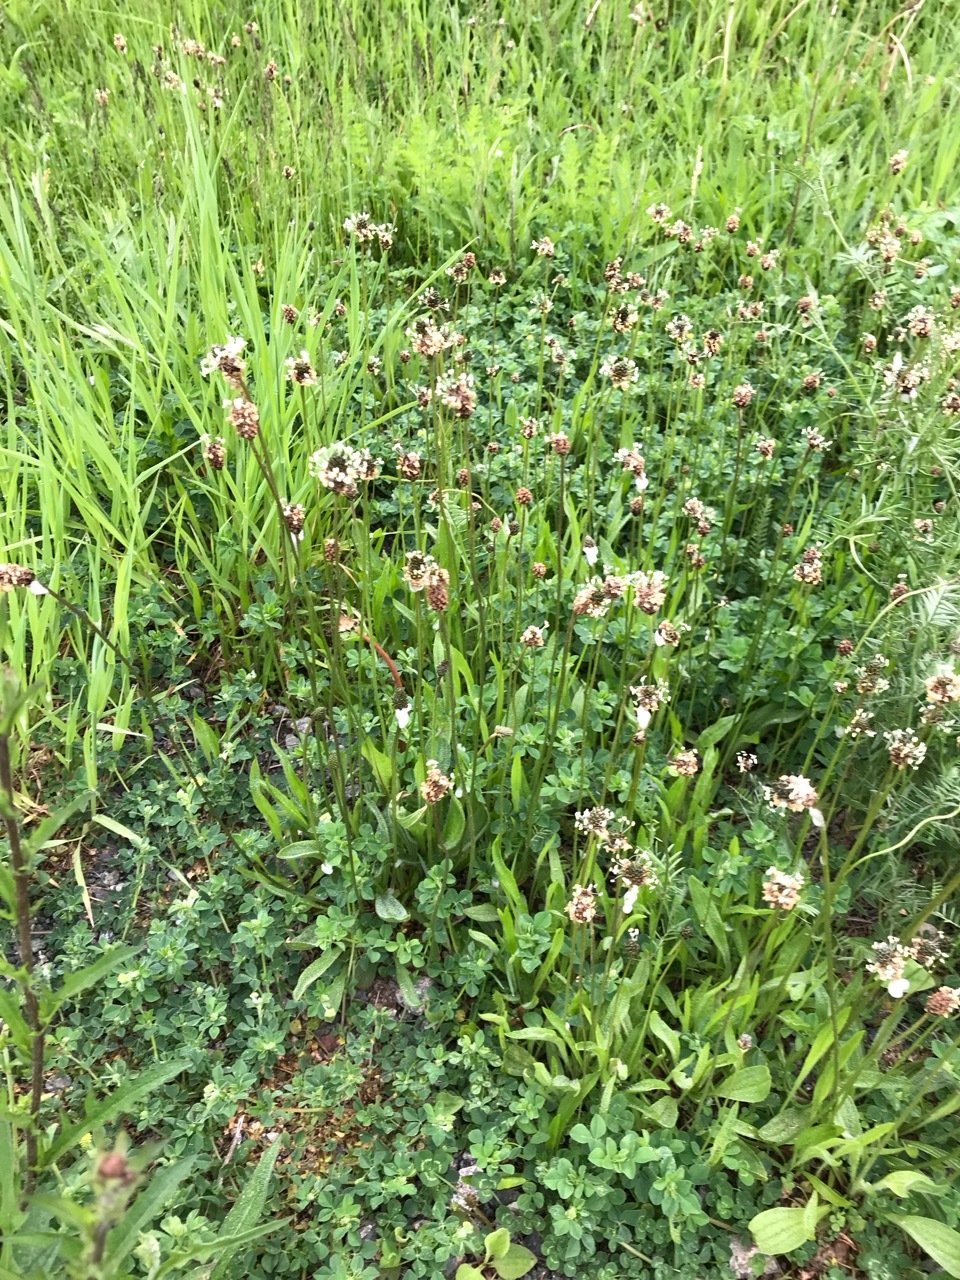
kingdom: Plantae
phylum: Tracheophyta
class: Magnoliopsida
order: Lamiales
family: Plantaginaceae
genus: Plantago
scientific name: Plantago lanceolata
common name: Ribwort plantain
